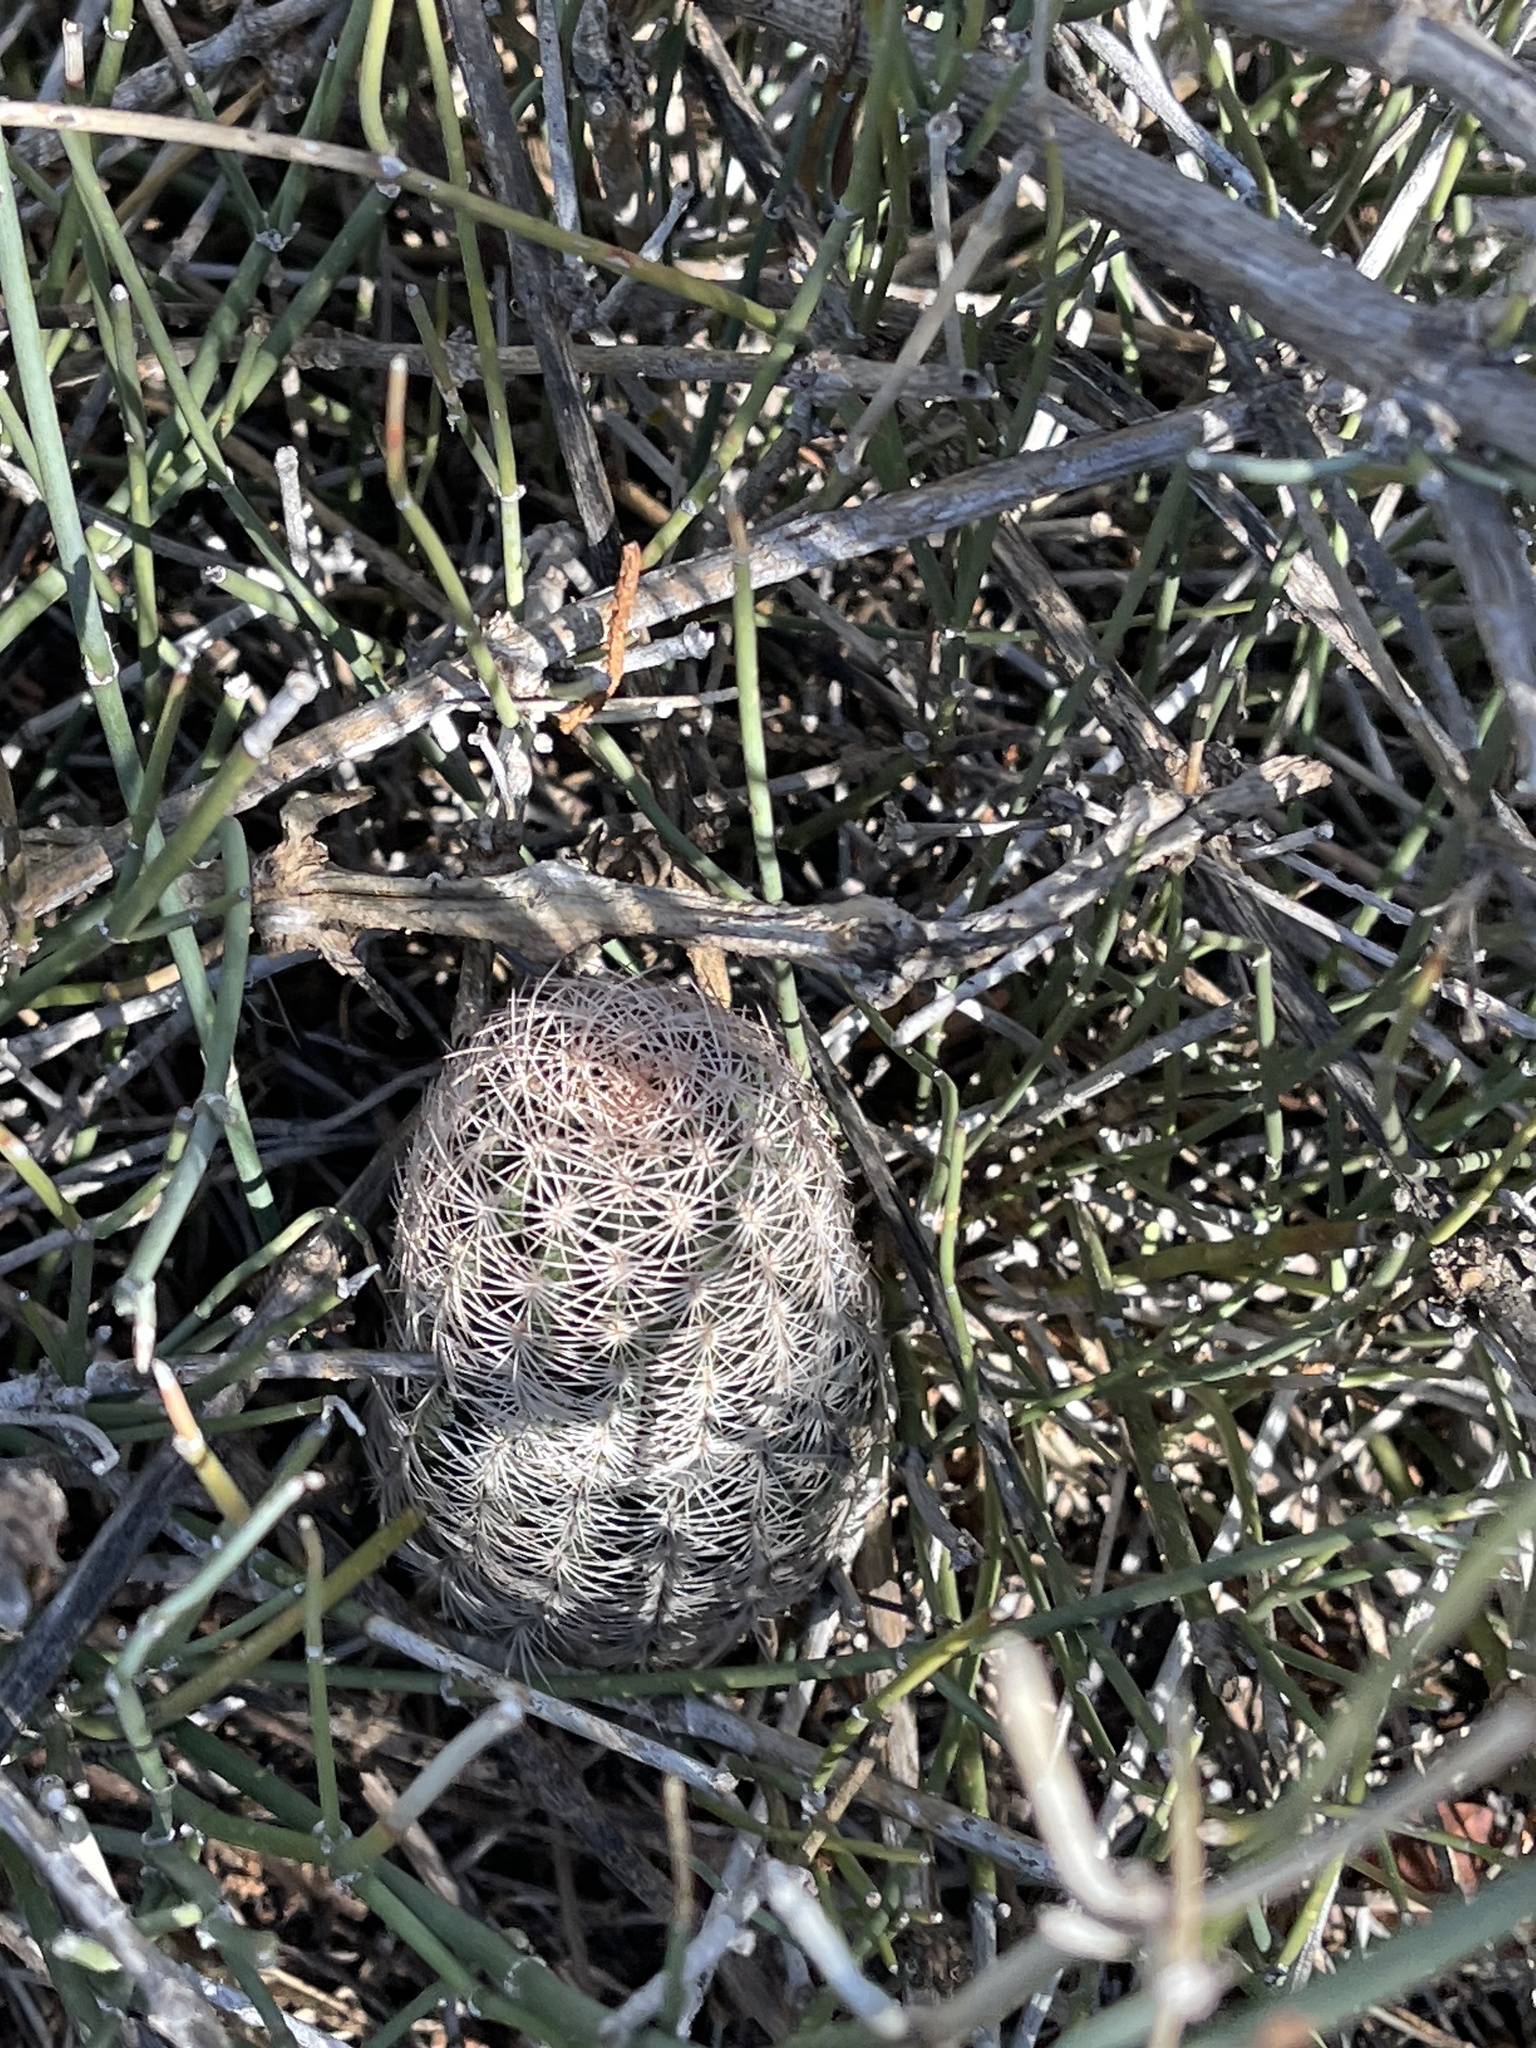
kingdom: Plantae
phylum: Tracheophyta
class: Magnoliopsida
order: Caryophyllales
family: Cactaceae
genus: Echinocereus
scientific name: Echinocereus reichenbachii
